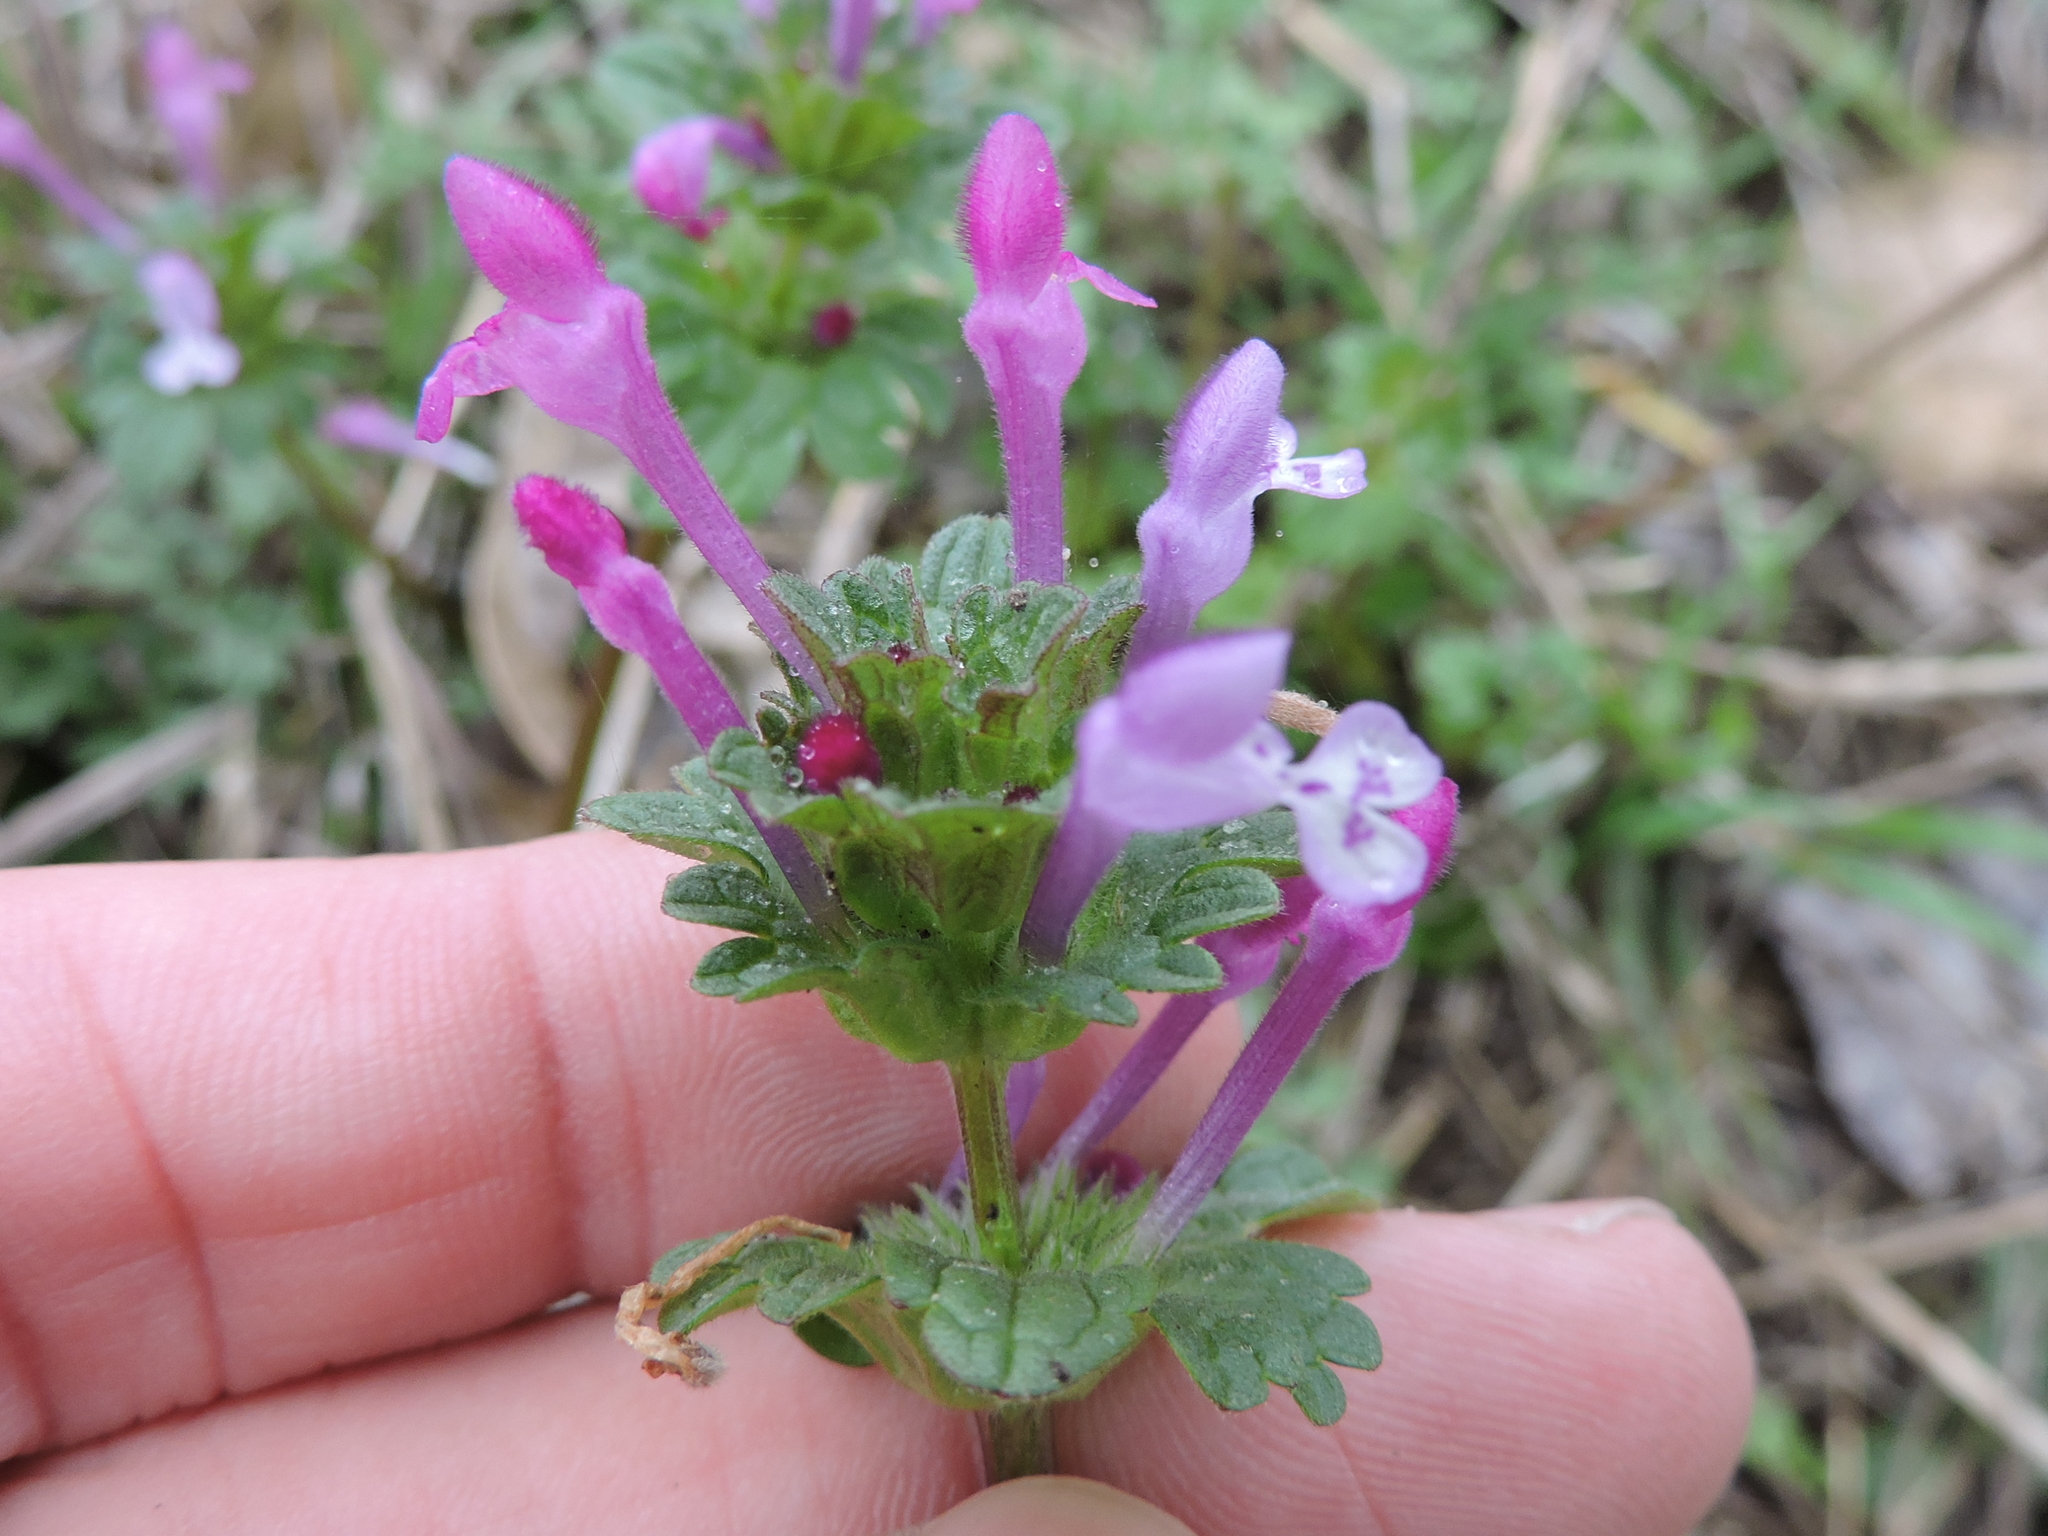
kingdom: Plantae
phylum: Tracheophyta
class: Magnoliopsida
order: Lamiales
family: Lamiaceae
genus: Lamium
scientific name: Lamium amplexicaule
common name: Henbit dead-nettle
